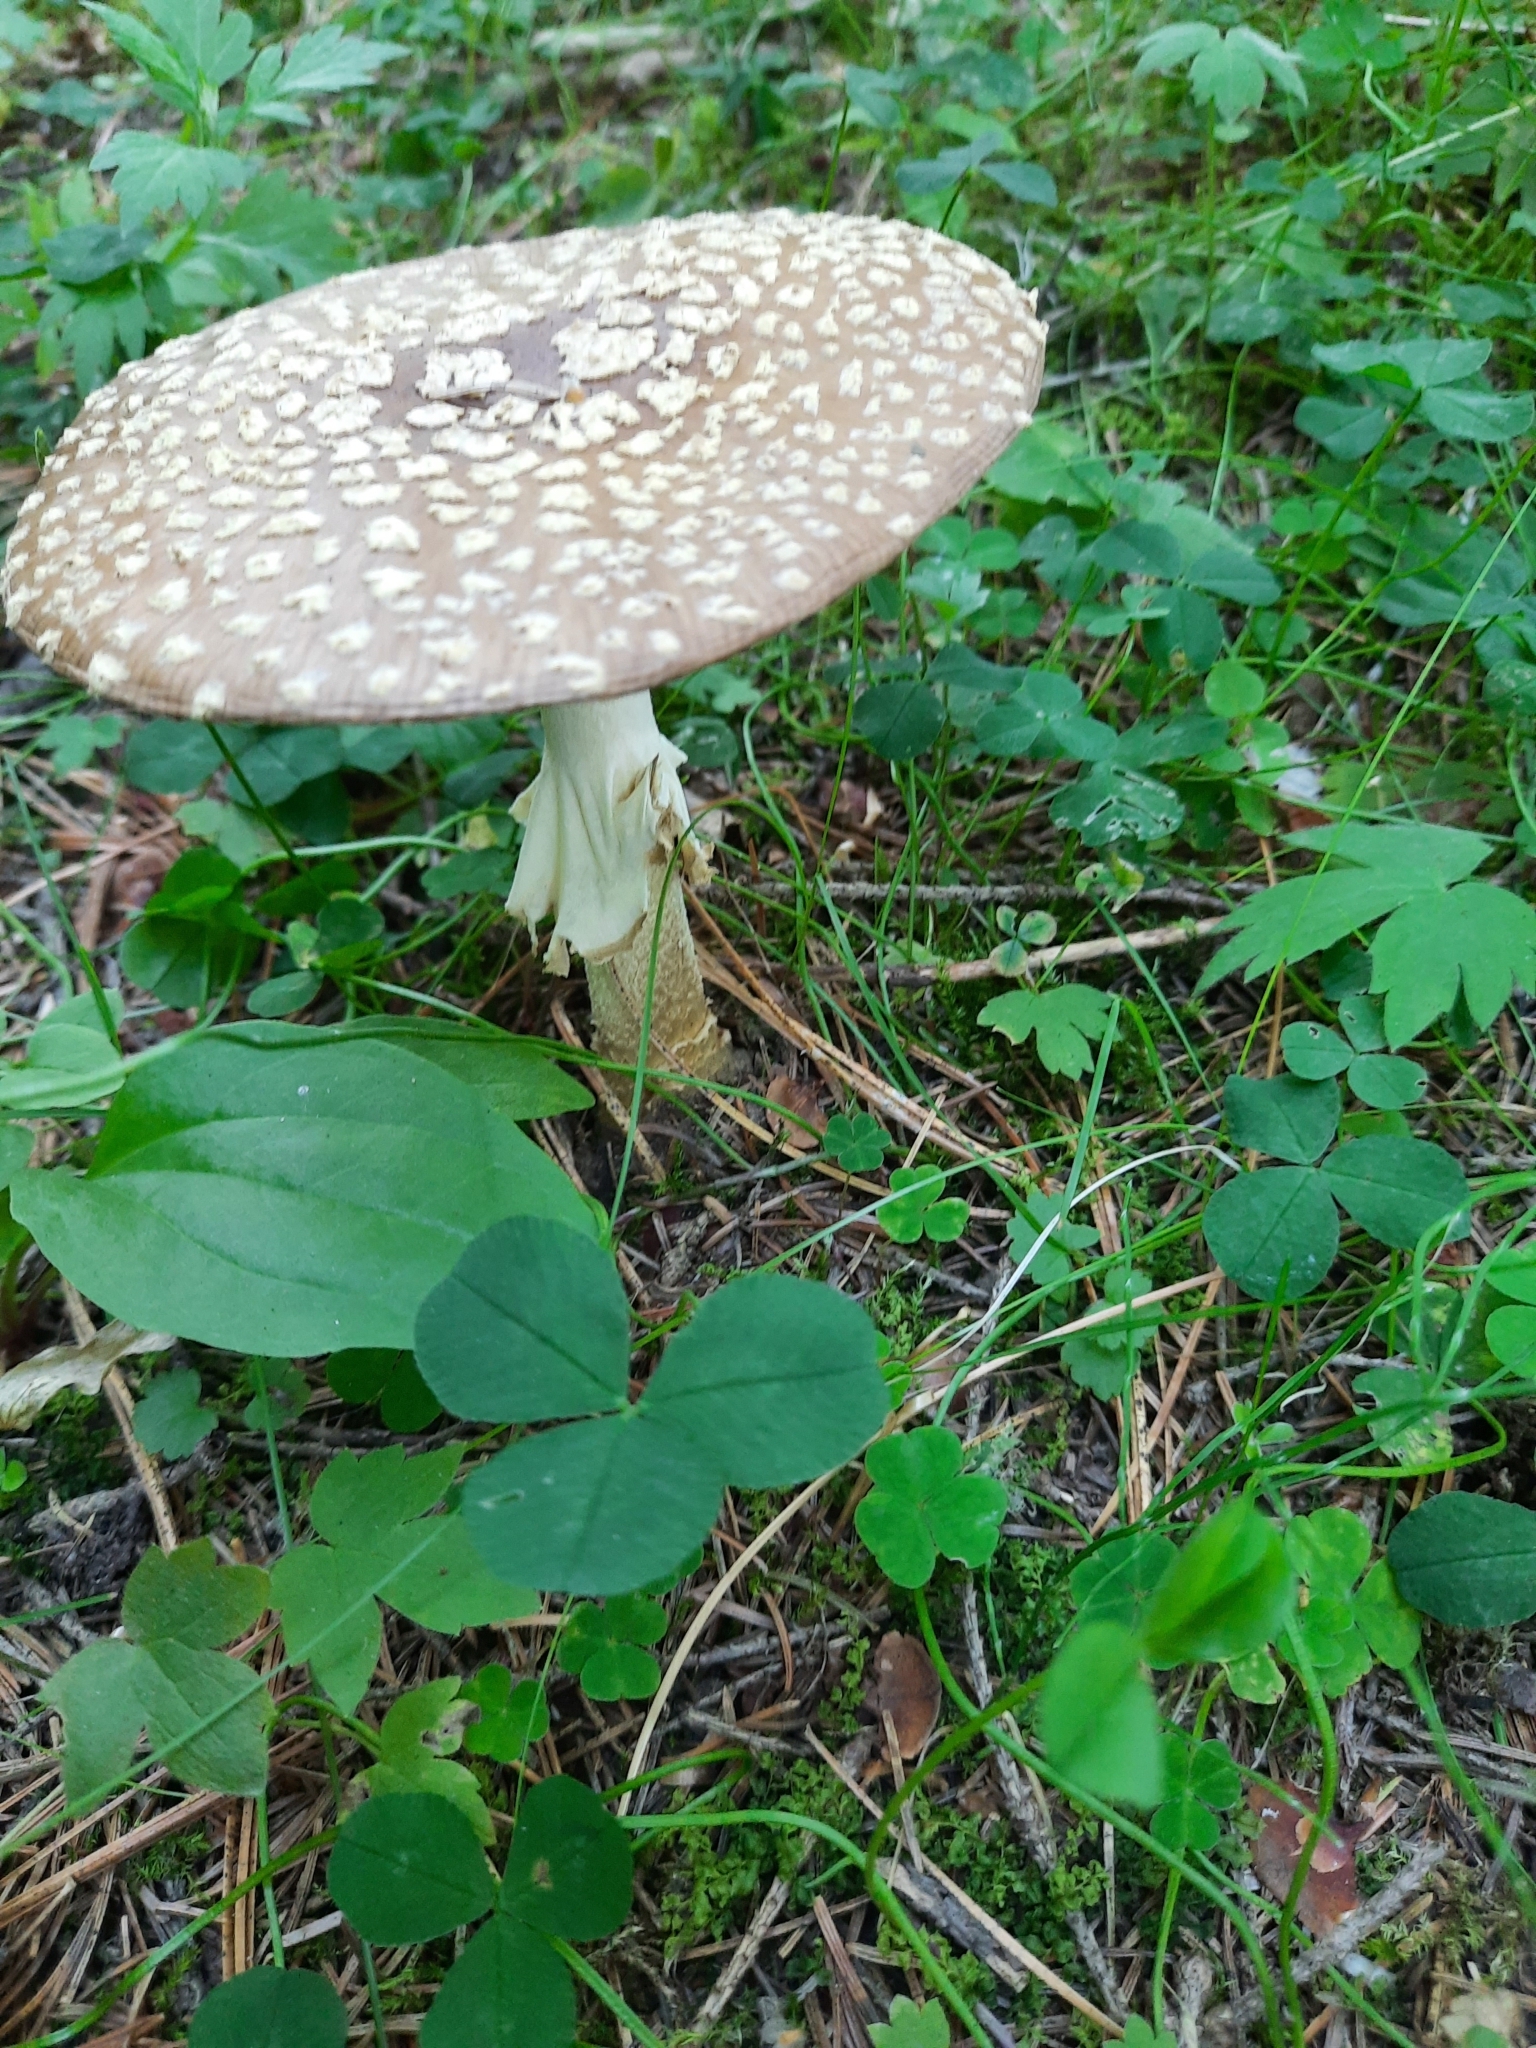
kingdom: Fungi
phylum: Basidiomycota
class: Agaricomycetes
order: Agaricales
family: Amanitaceae
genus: Amanita
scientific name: Amanita regalis
